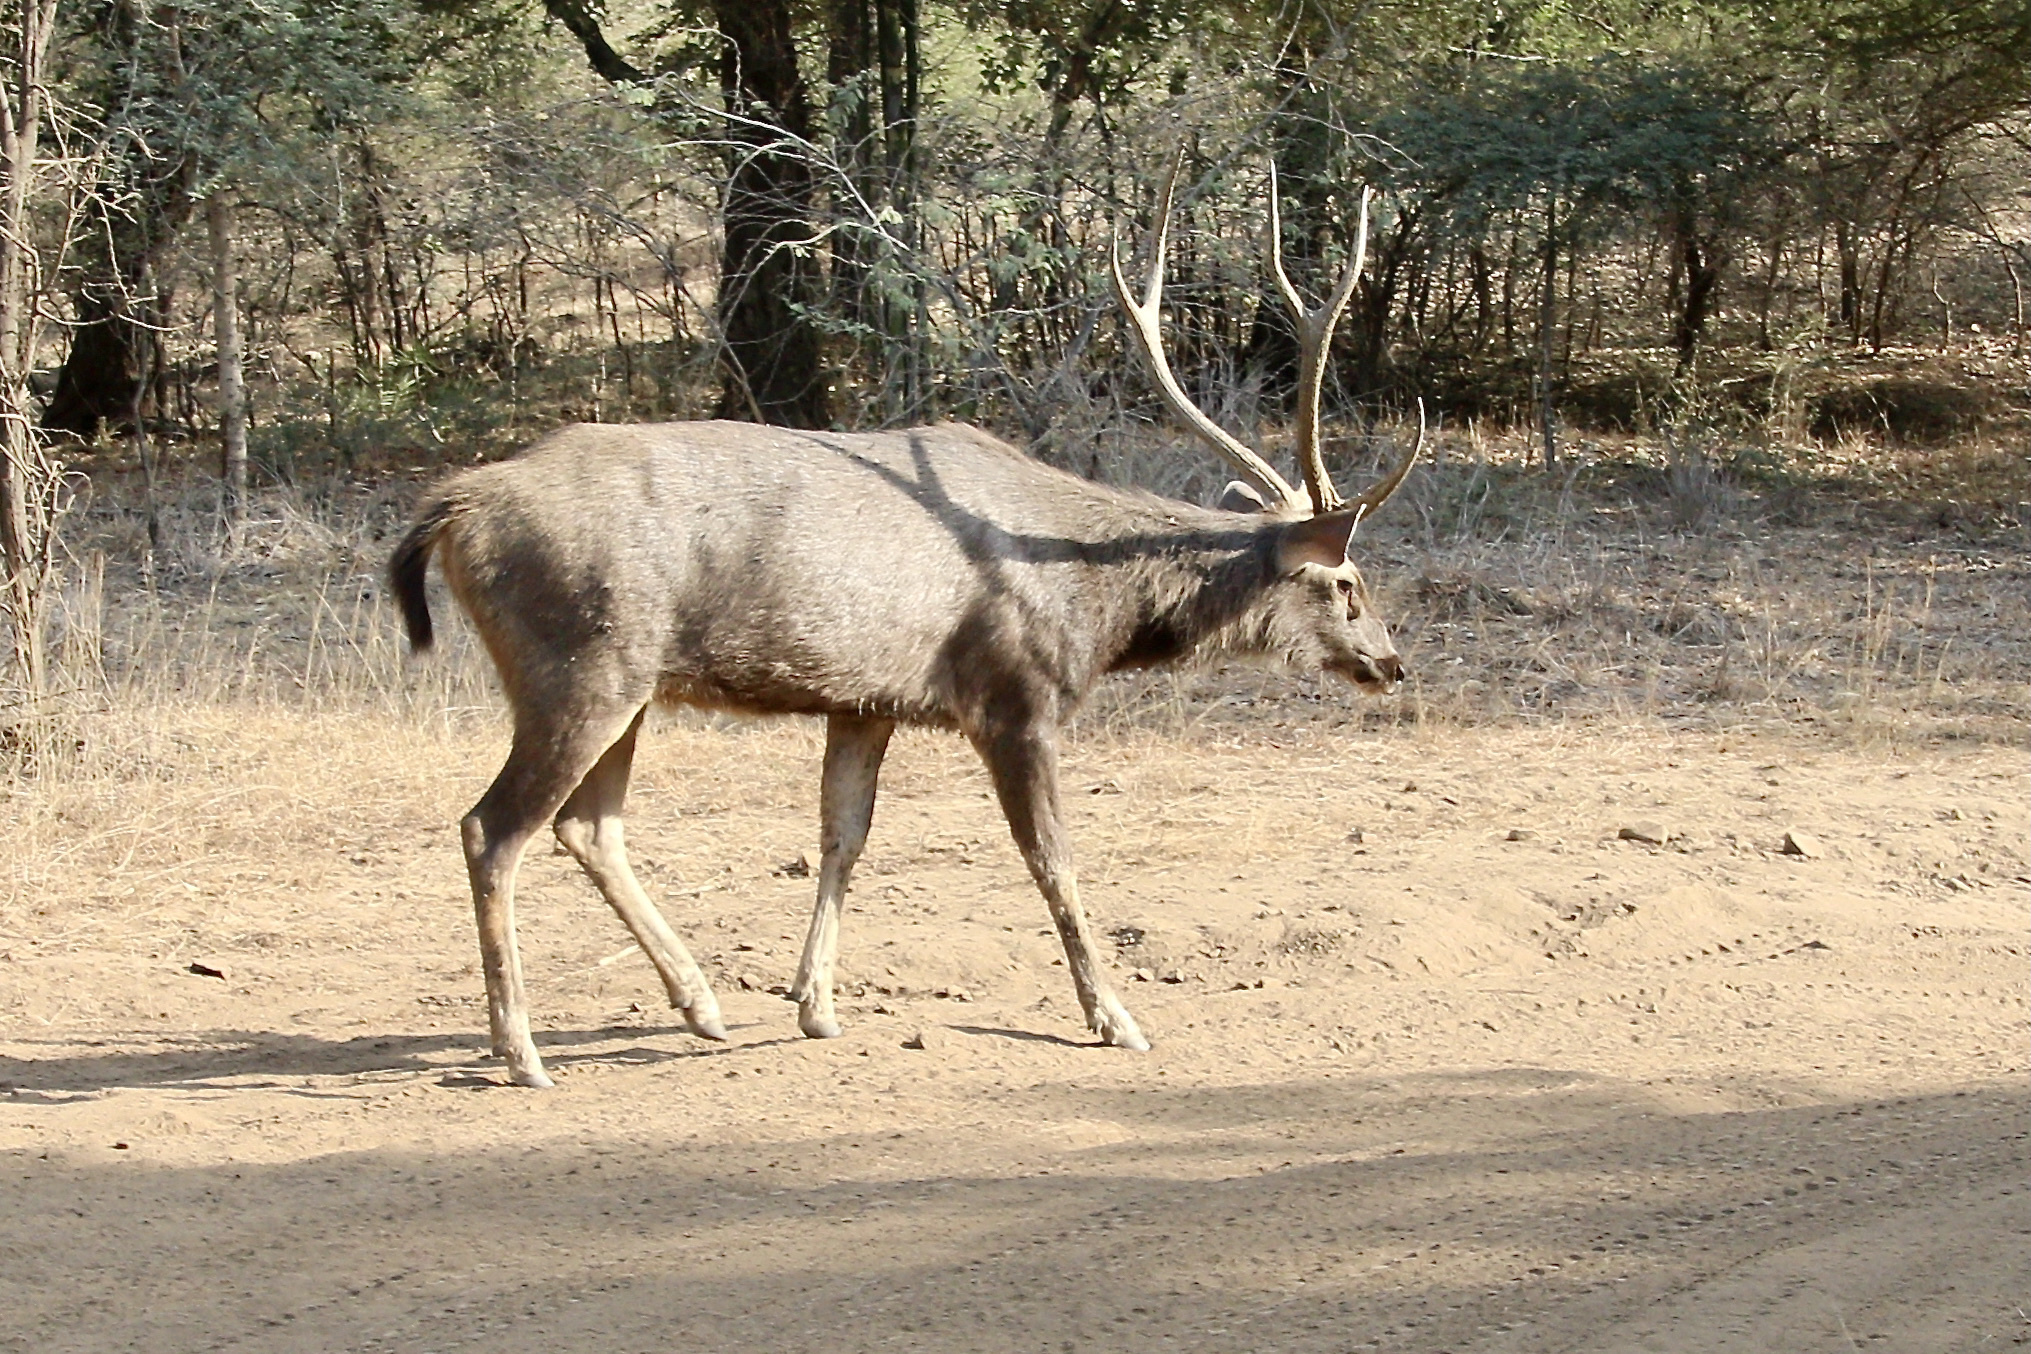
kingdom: Animalia
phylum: Chordata
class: Mammalia
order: Artiodactyla
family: Cervidae
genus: Rusa
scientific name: Rusa unicolor
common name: Sambar
